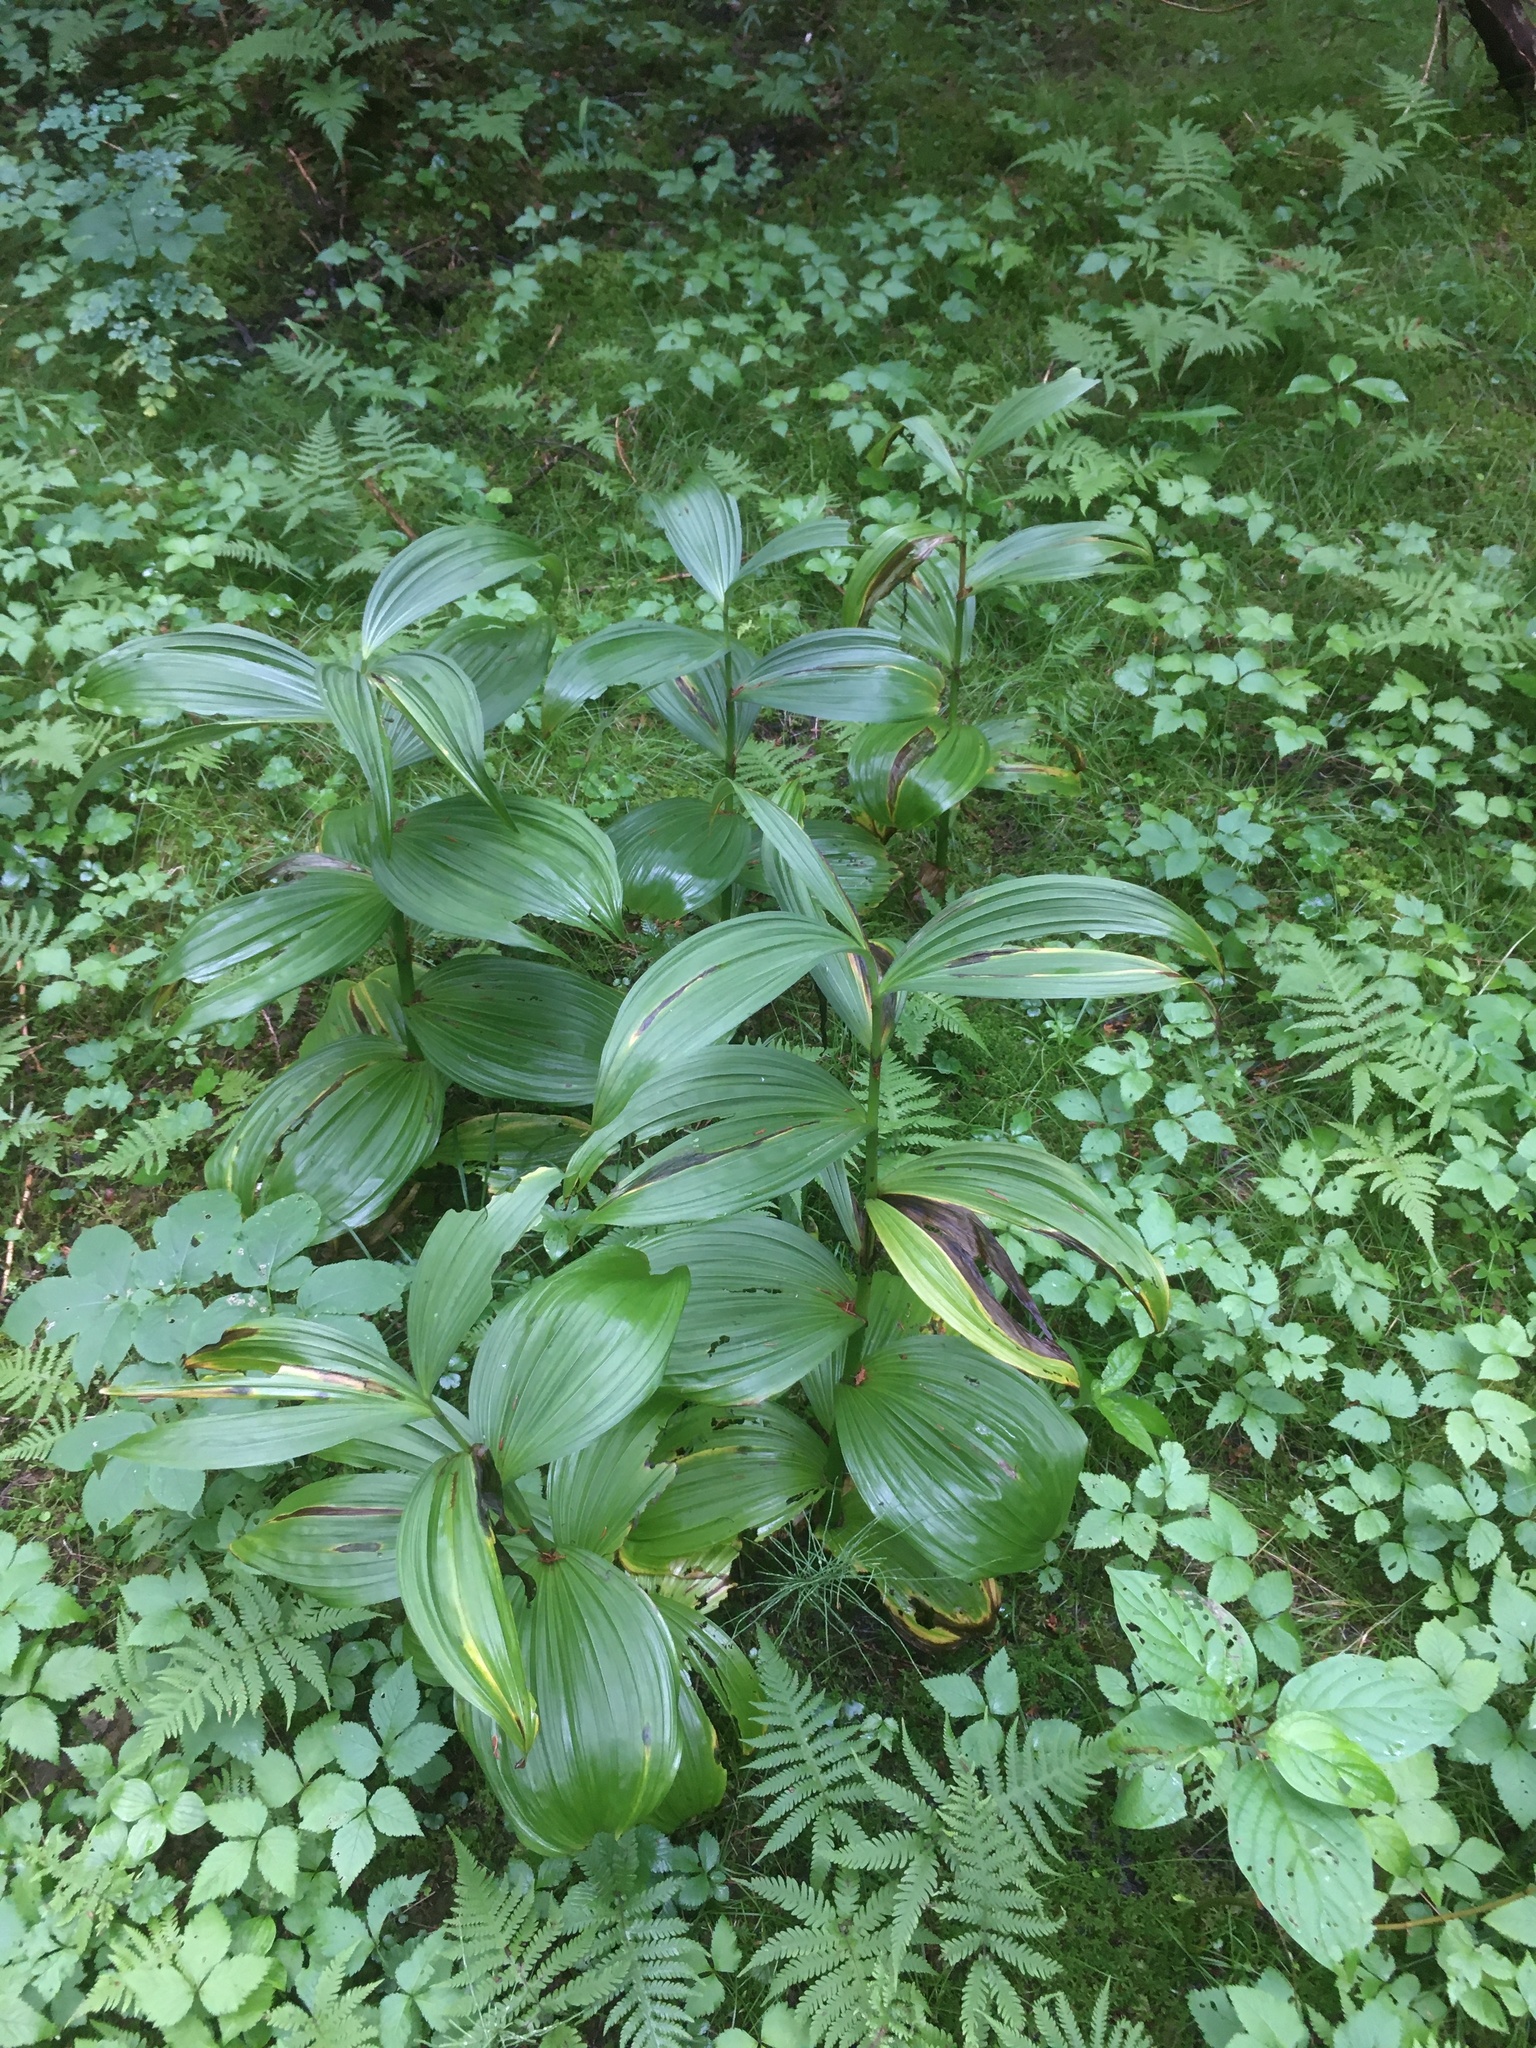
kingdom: Plantae
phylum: Tracheophyta
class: Liliopsida
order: Liliales
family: Melanthiaceae
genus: Veratrum
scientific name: Veratrum viride
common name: American false hellebore
